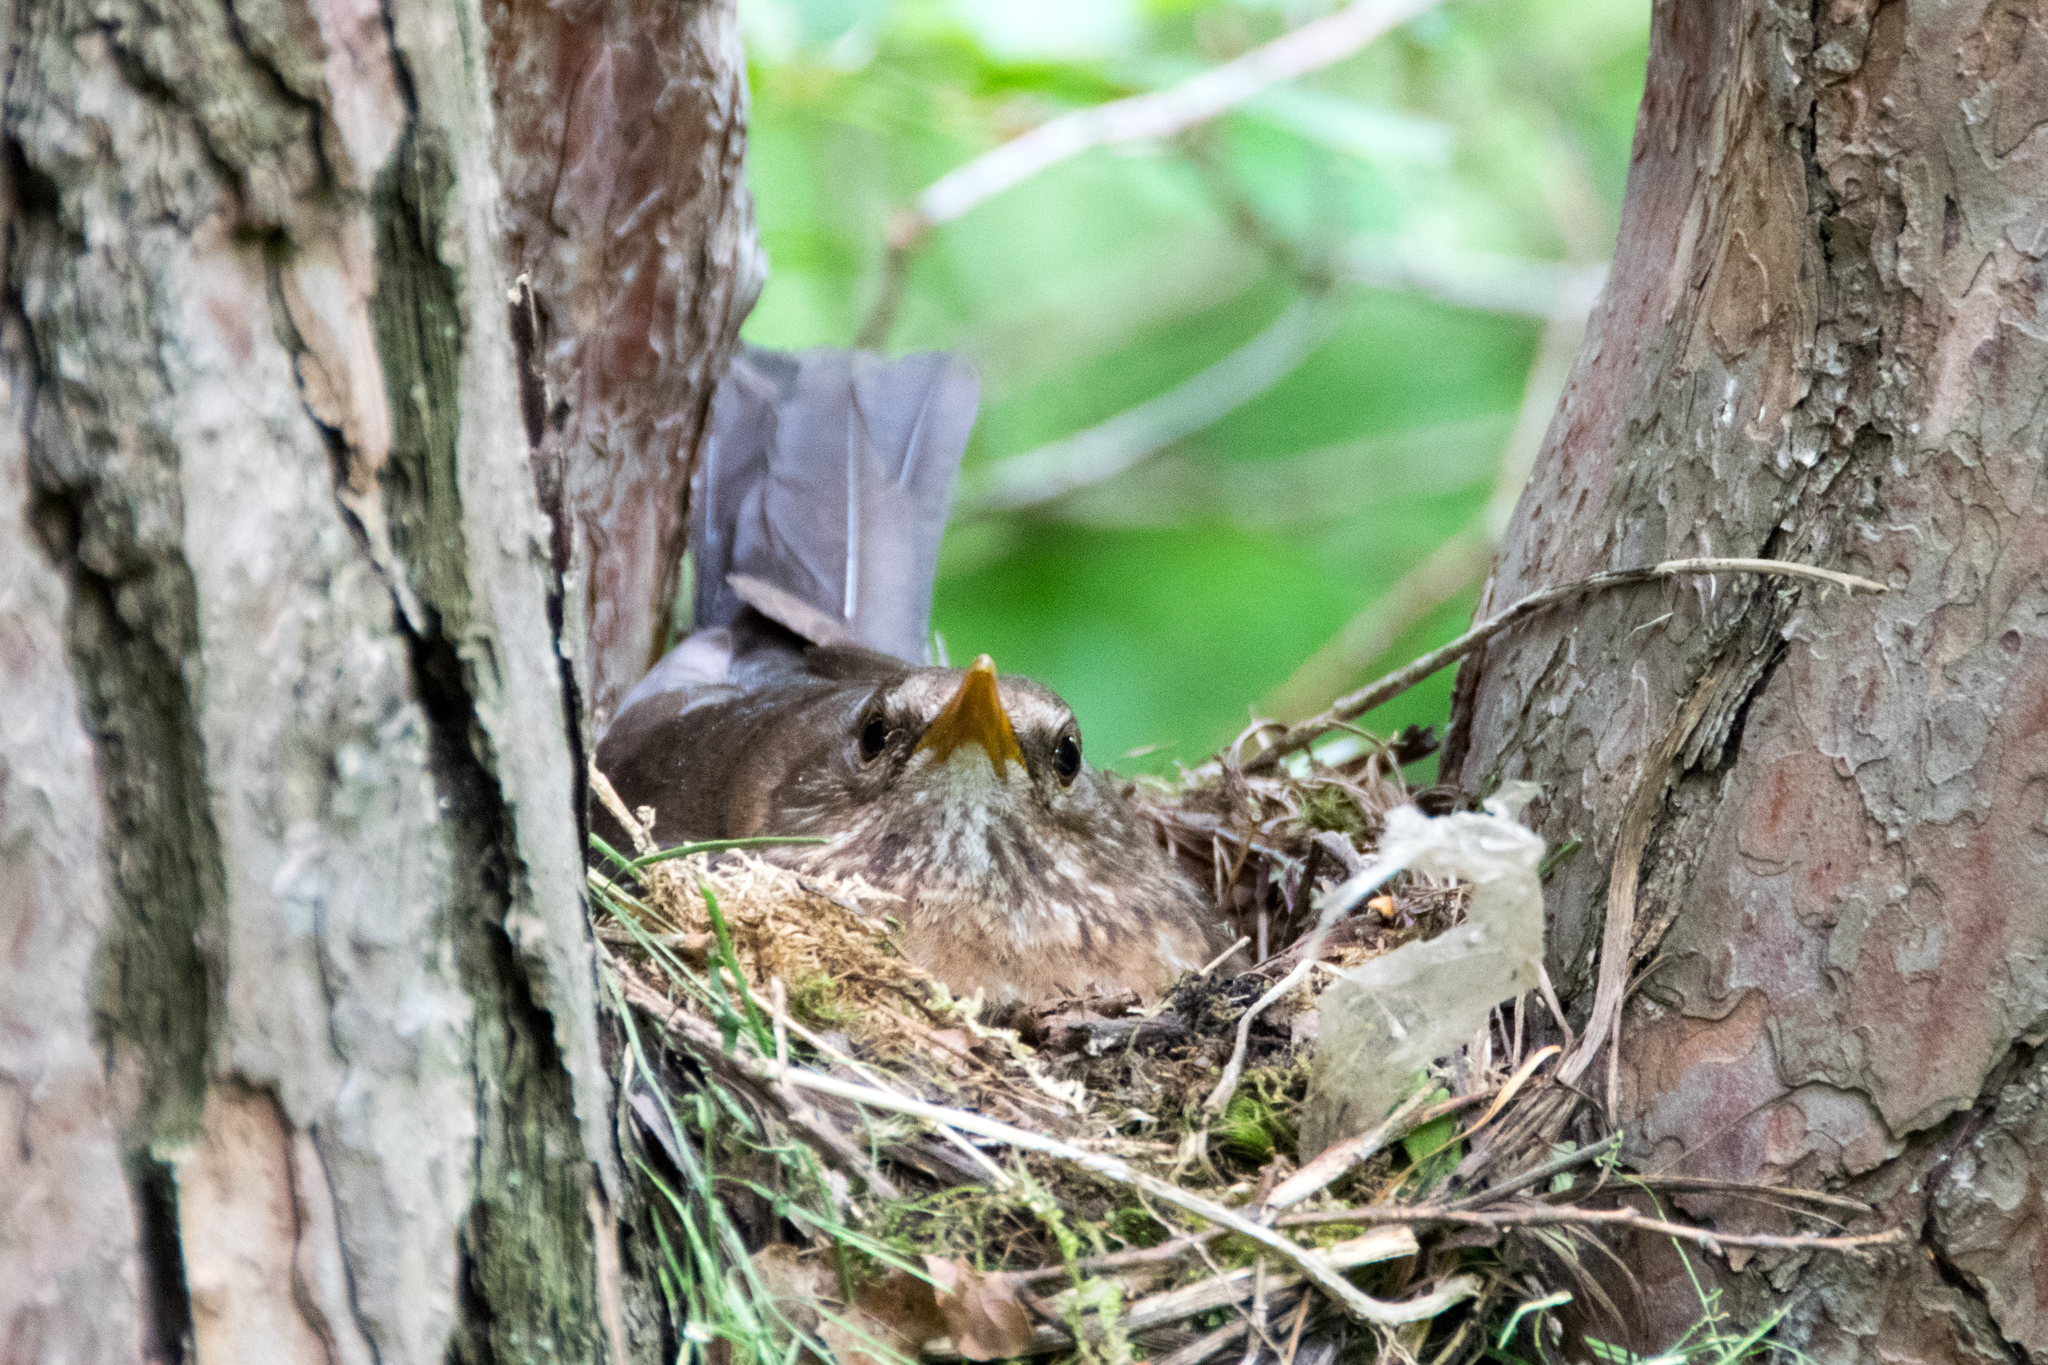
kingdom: Animalia
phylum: Chordata
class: Aves
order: Passeriformes
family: Turdidae
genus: Turdus
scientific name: Turdus merula
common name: Common blackbird
